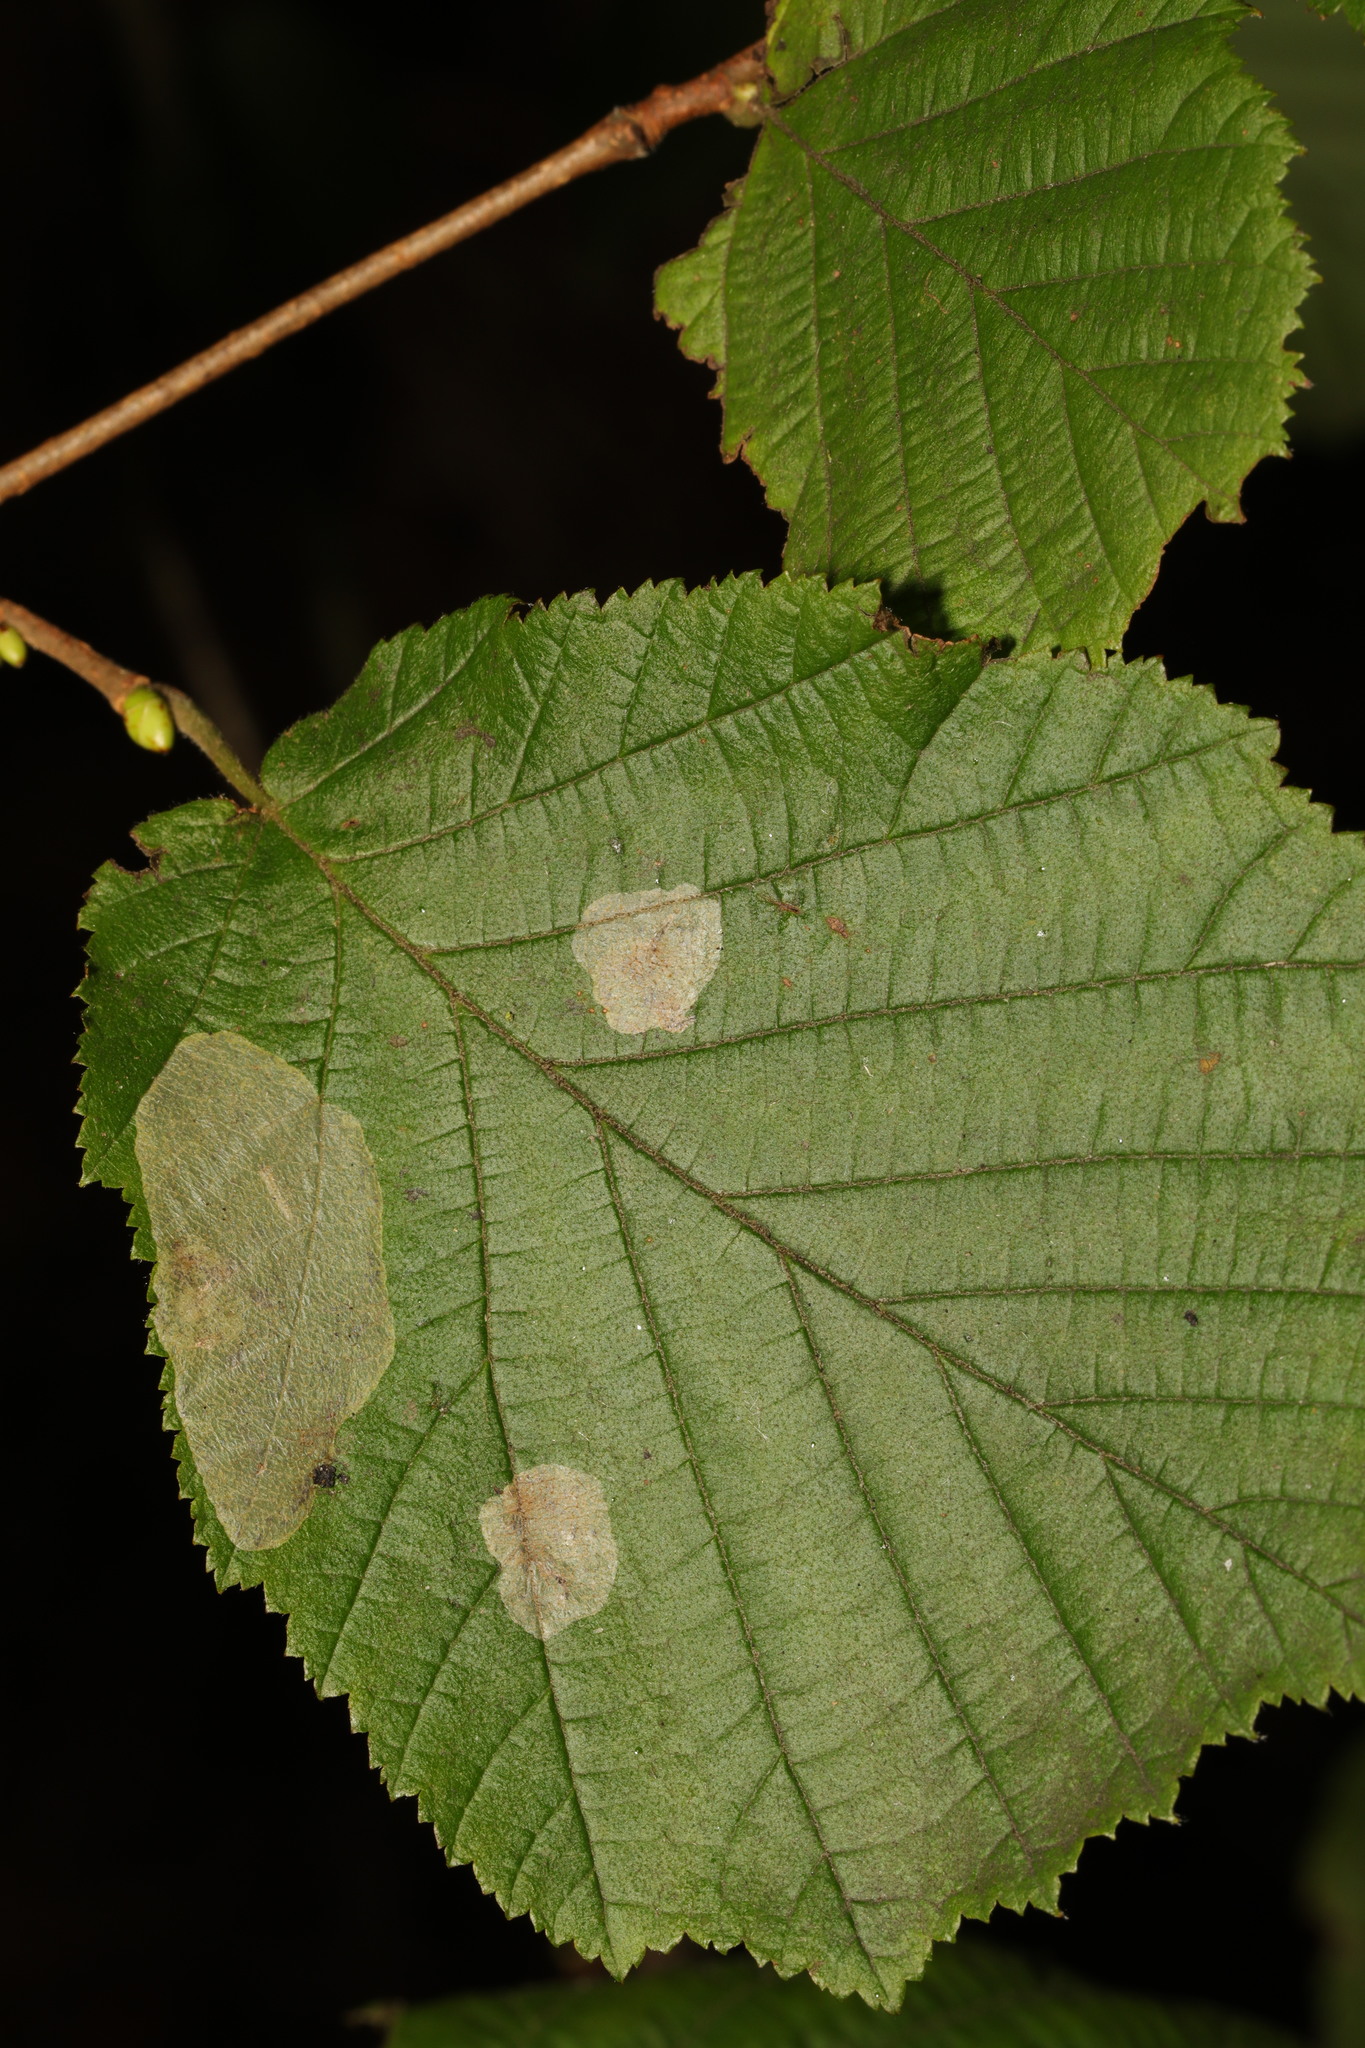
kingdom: Animalia
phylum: Arthropoda
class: Insecta
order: Lepidoptera
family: Gracillariidae
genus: Phyllonorycter
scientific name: Phyllonorycter coryli
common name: Nut-leaf blister moth
